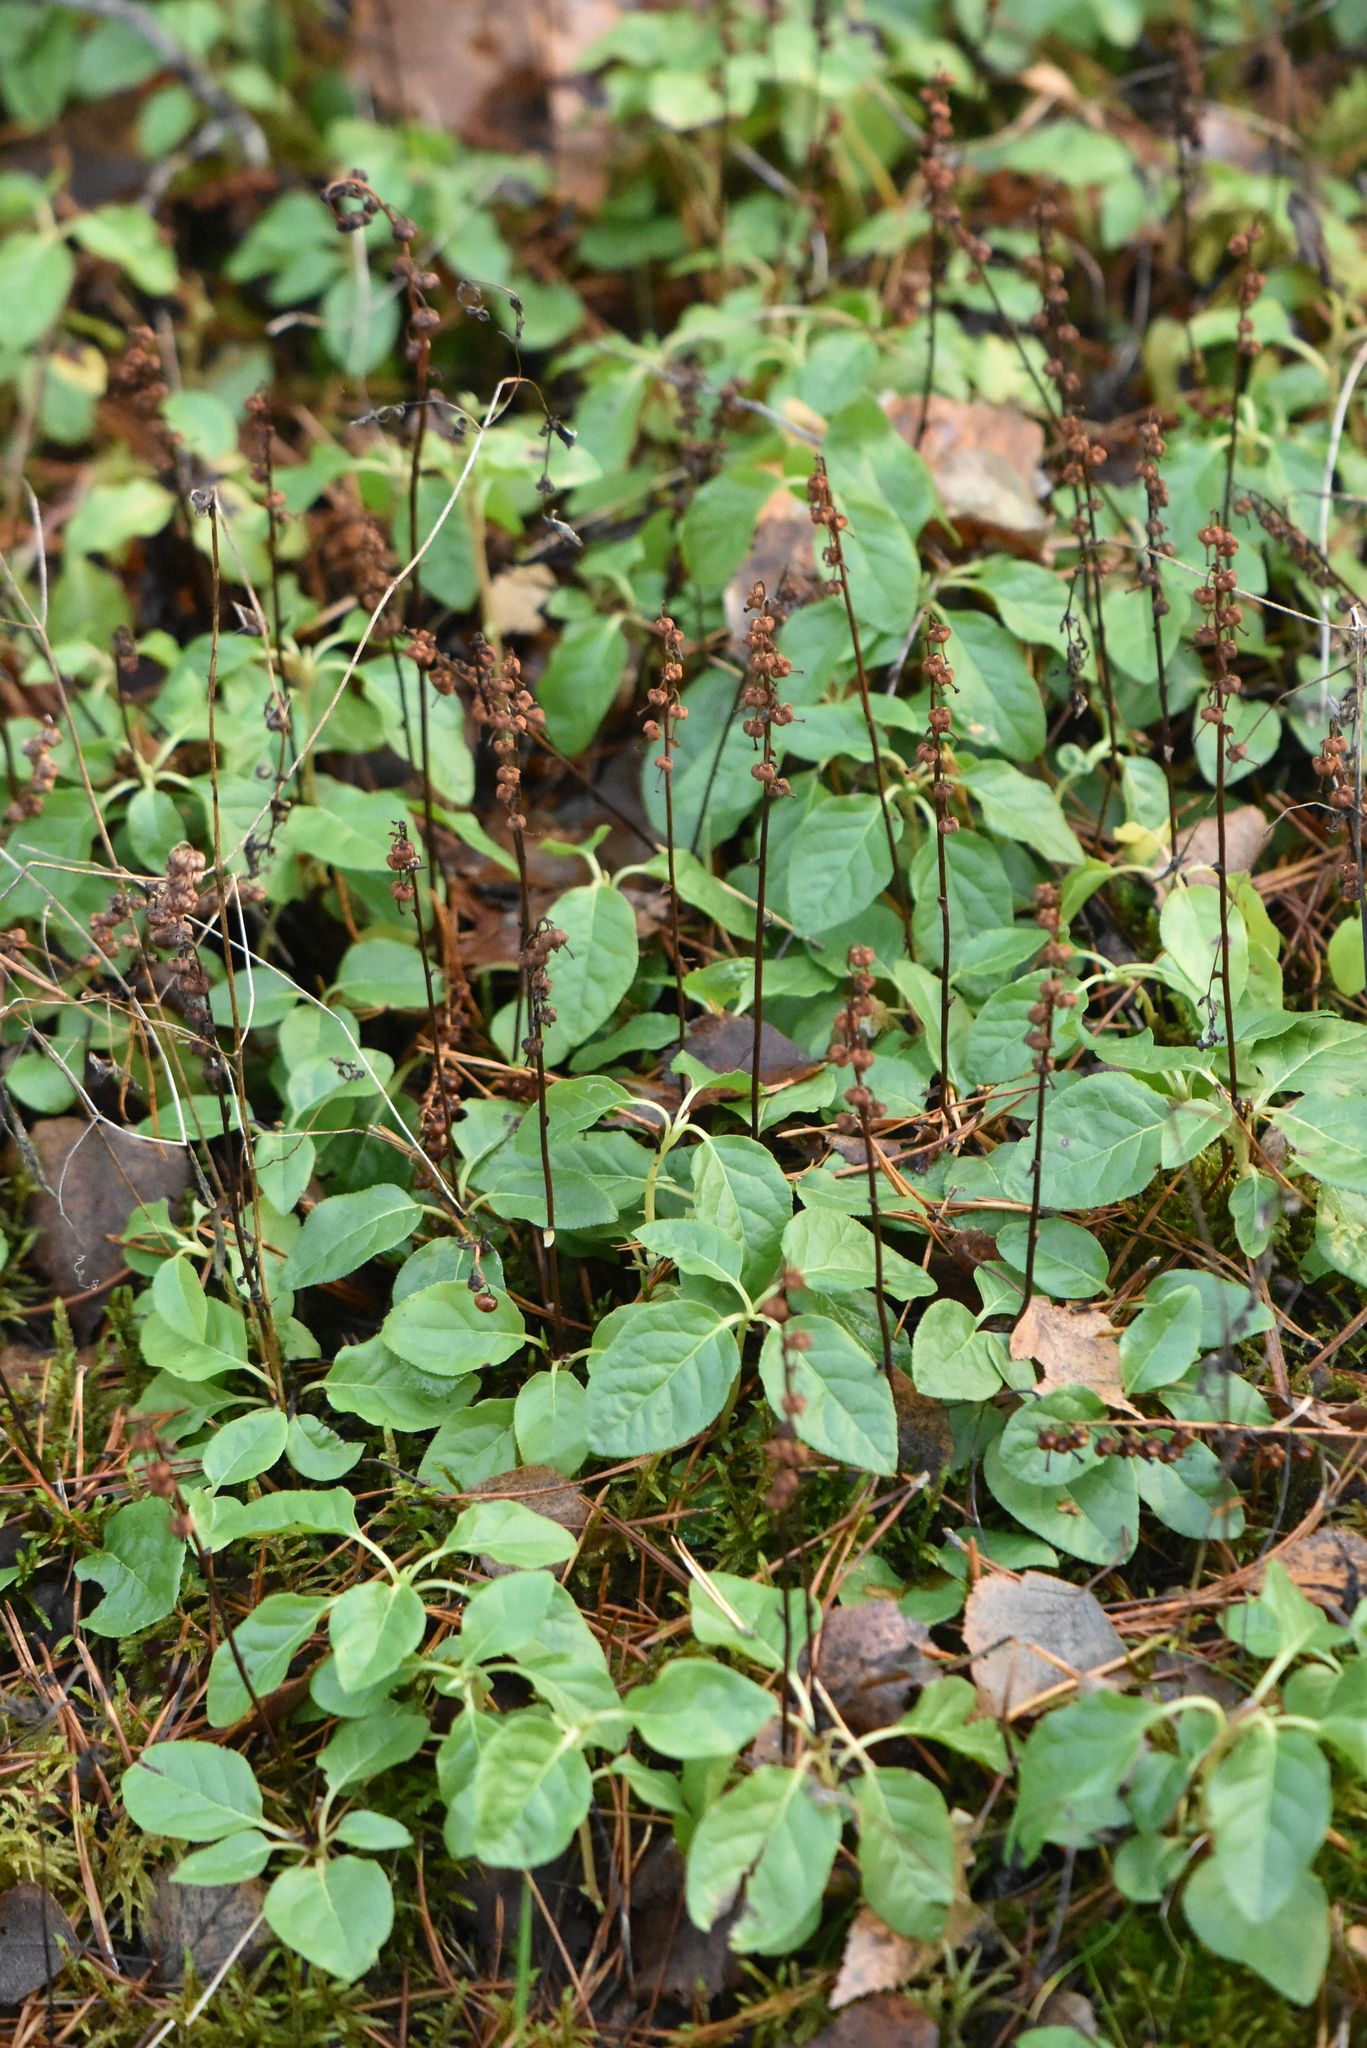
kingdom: Plantae
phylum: Tracheophyta
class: Magnoliopsida
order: Ericales
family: Ericaceae
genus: Orthilia
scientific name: Orthilia secunda
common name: One-sided orthilia
